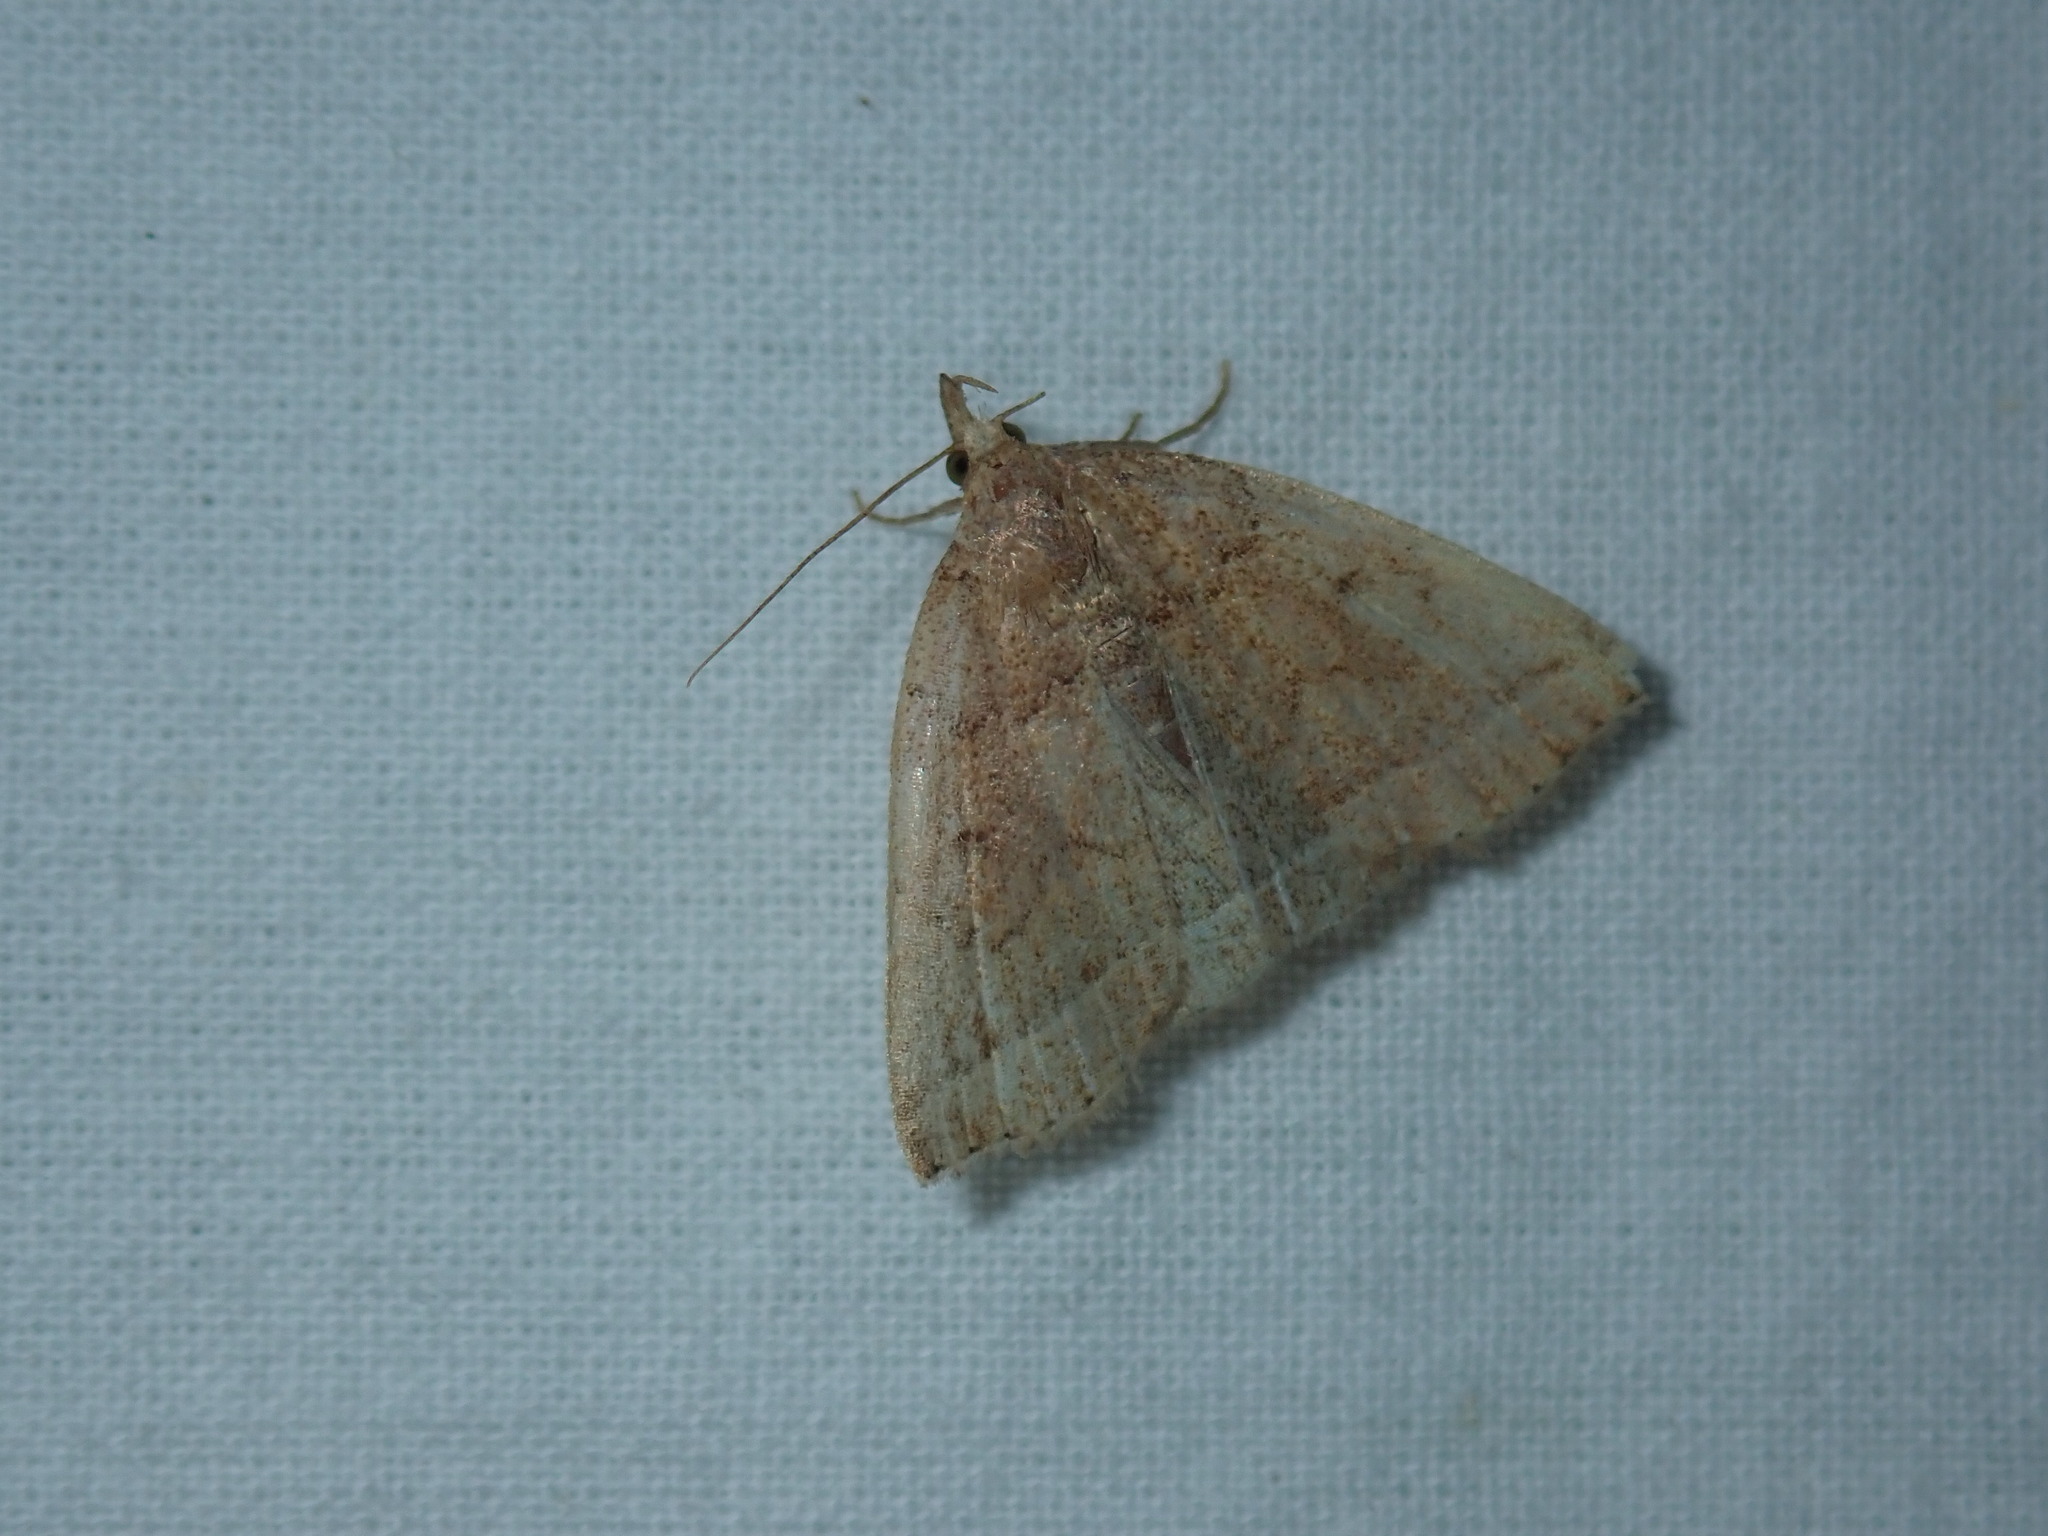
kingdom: Animalia
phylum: Arthropoda
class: Insecta
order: Lepidoptera
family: Erebidae
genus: Zanclognatha
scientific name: Zanclognatha jacchusalis
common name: Yellowish zanclognatha
